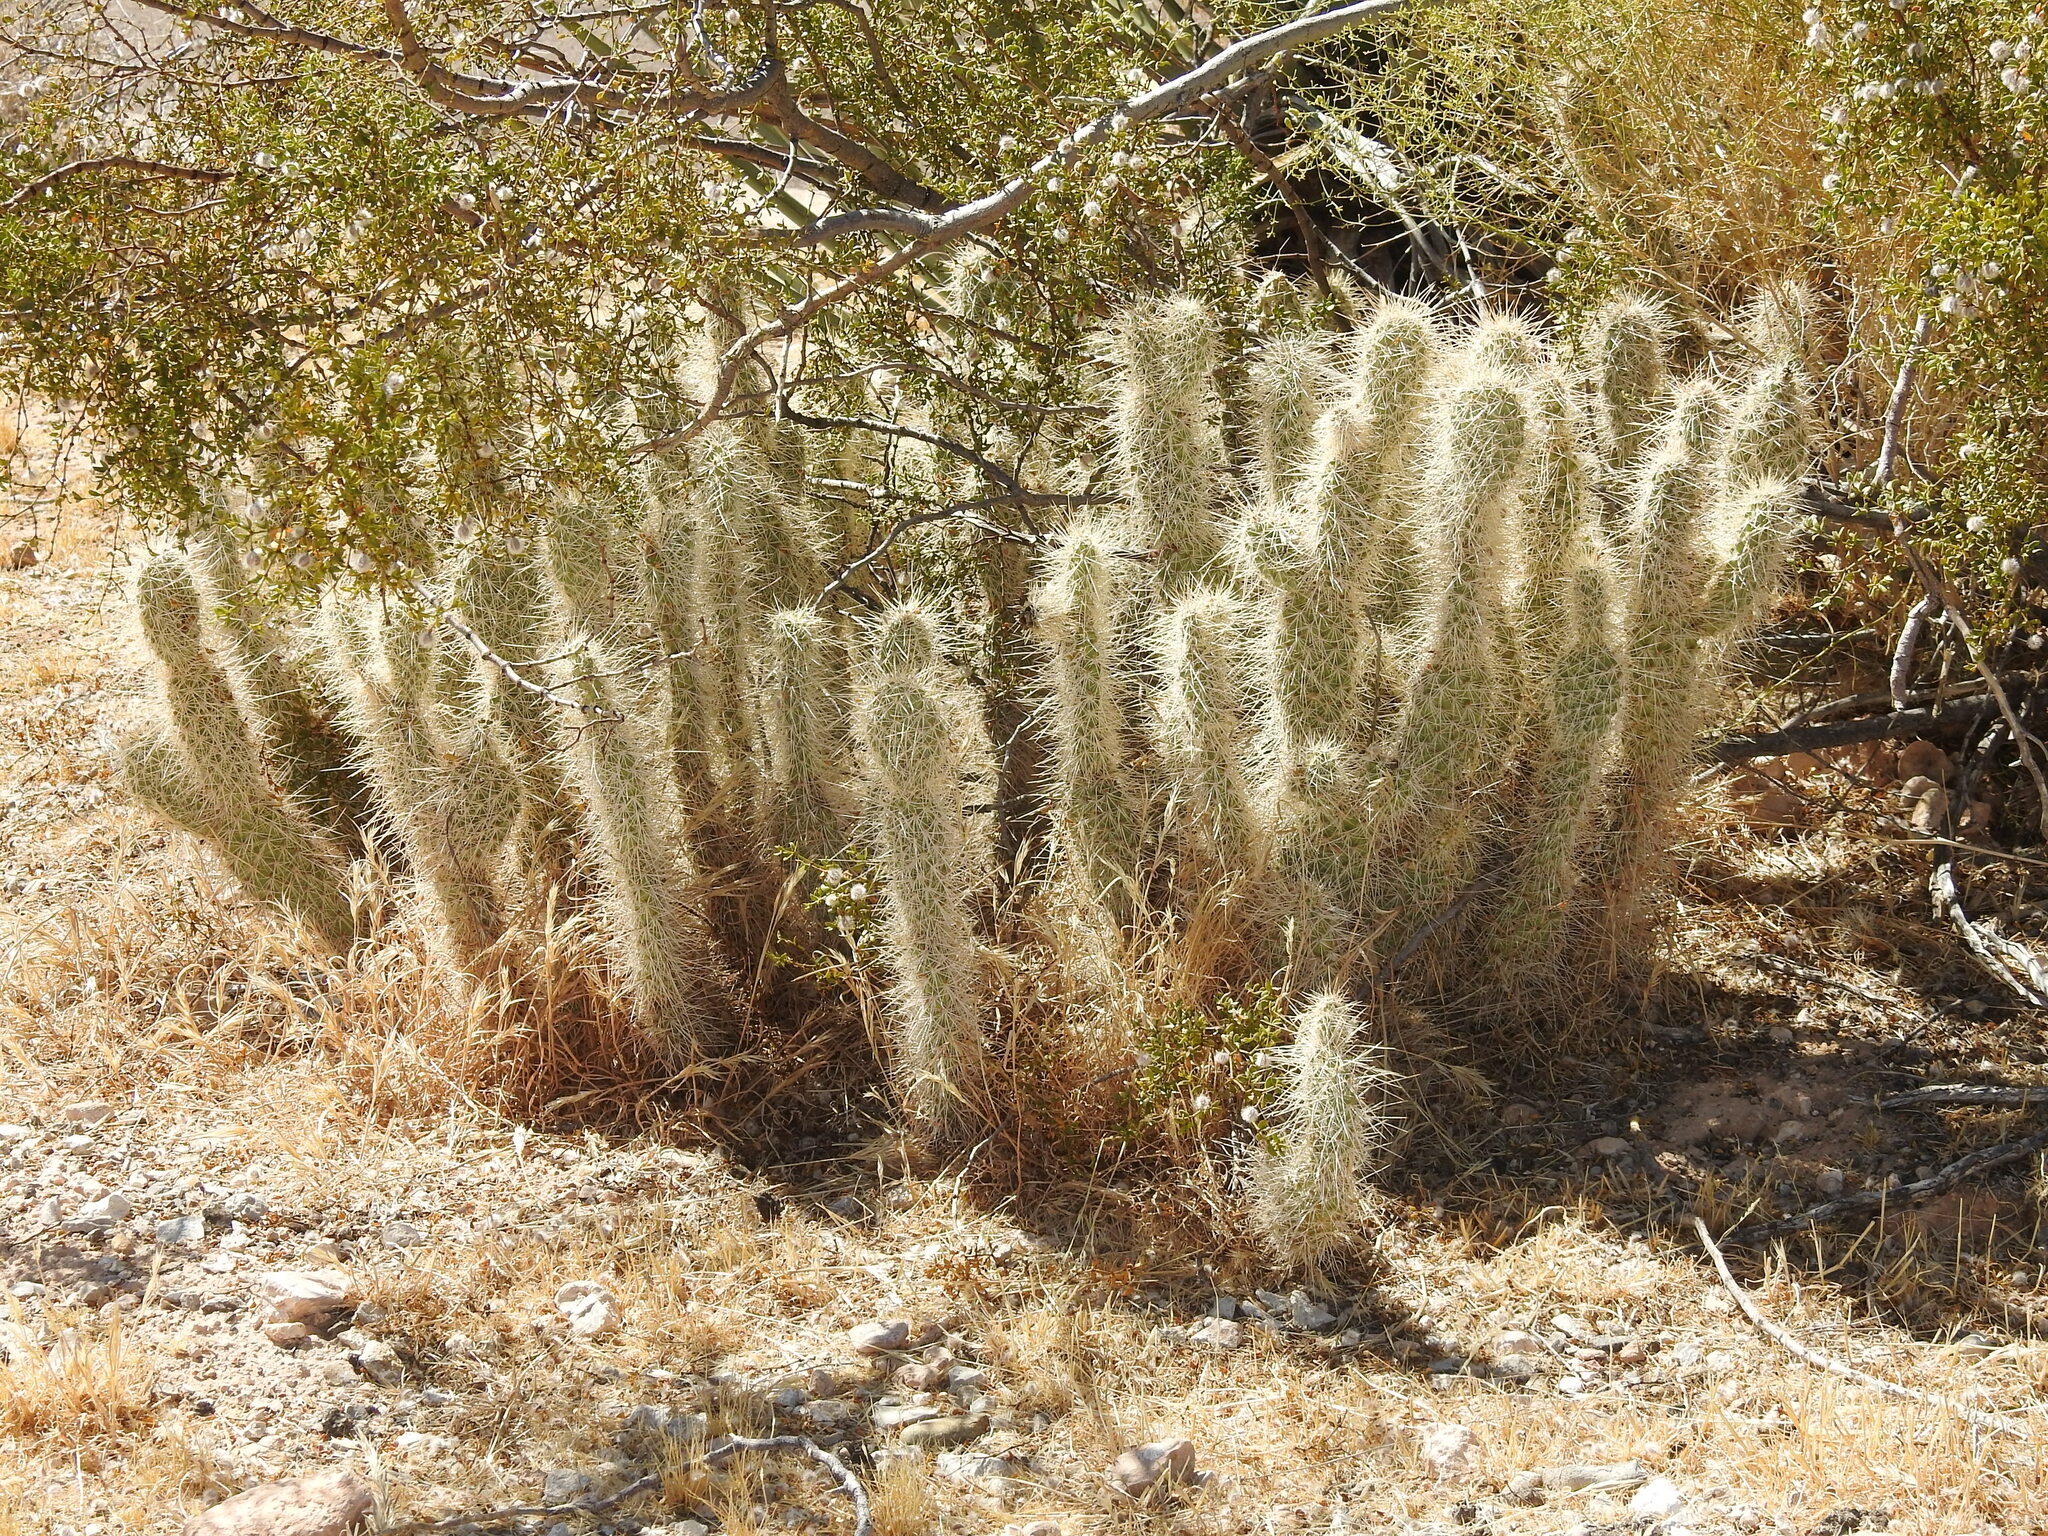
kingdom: Plantae
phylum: Tracheophyta
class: Magnoliopsida
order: Caryophyllales
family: Cactaceae
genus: Opuntia
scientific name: Opuntia polyacantha
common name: Plains prickly-pear
